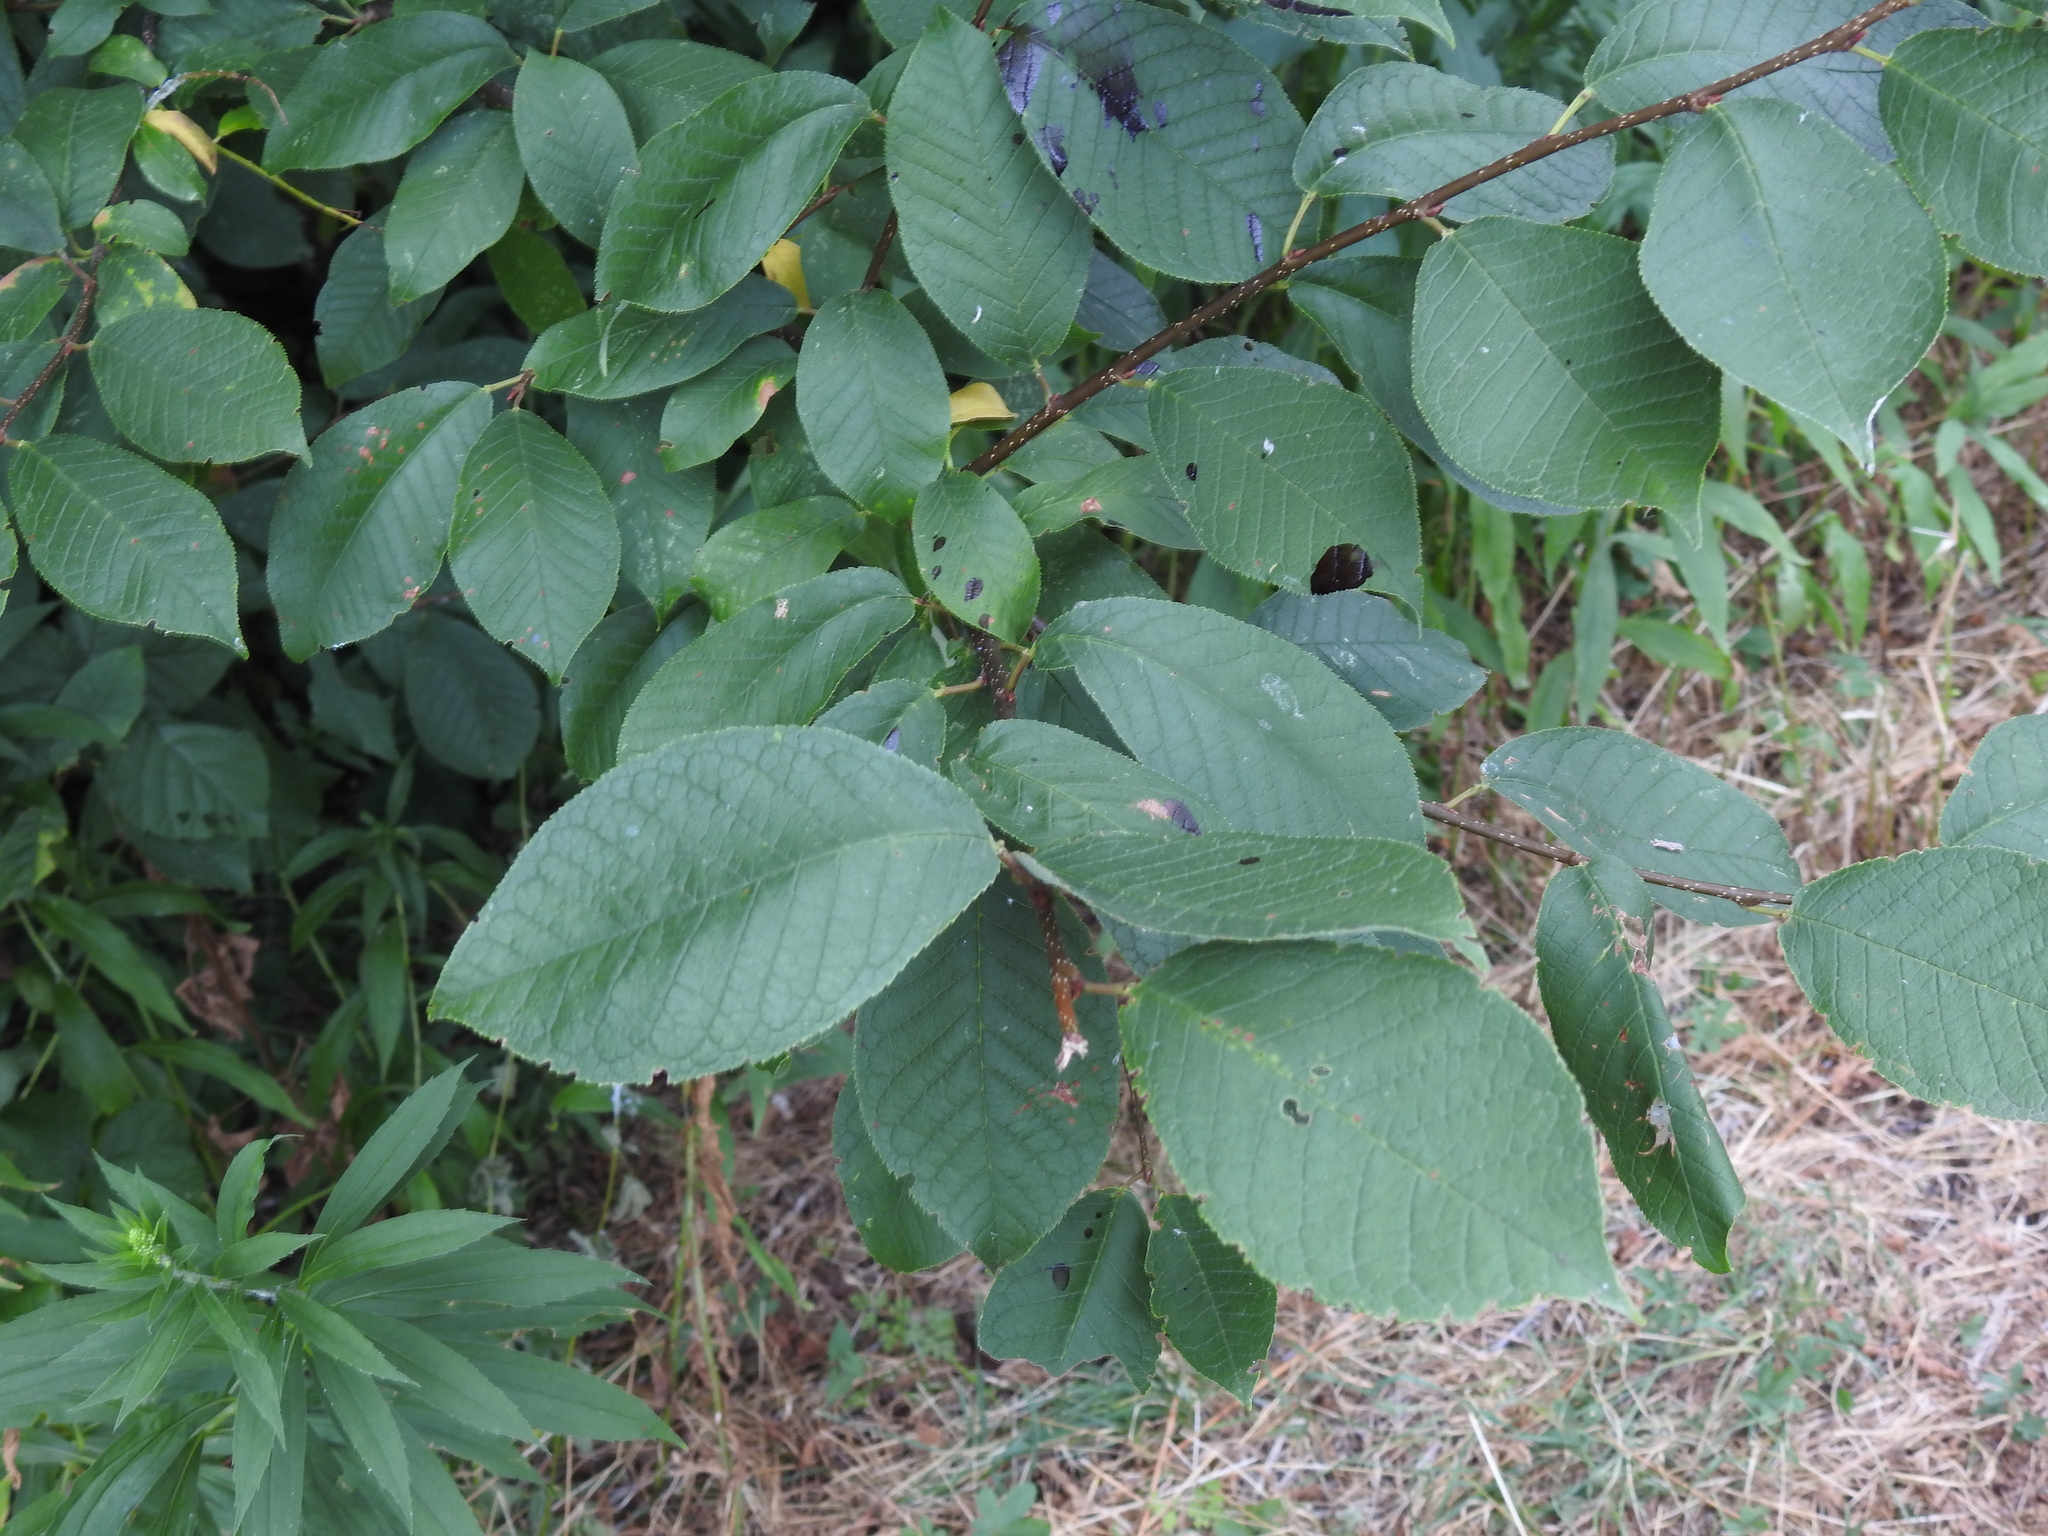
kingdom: Plantae
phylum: Tracheophyta
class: Magnoliopsida
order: Rosales
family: Rosaceae
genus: Prunus
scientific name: Prunus padus
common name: Bird cherry
